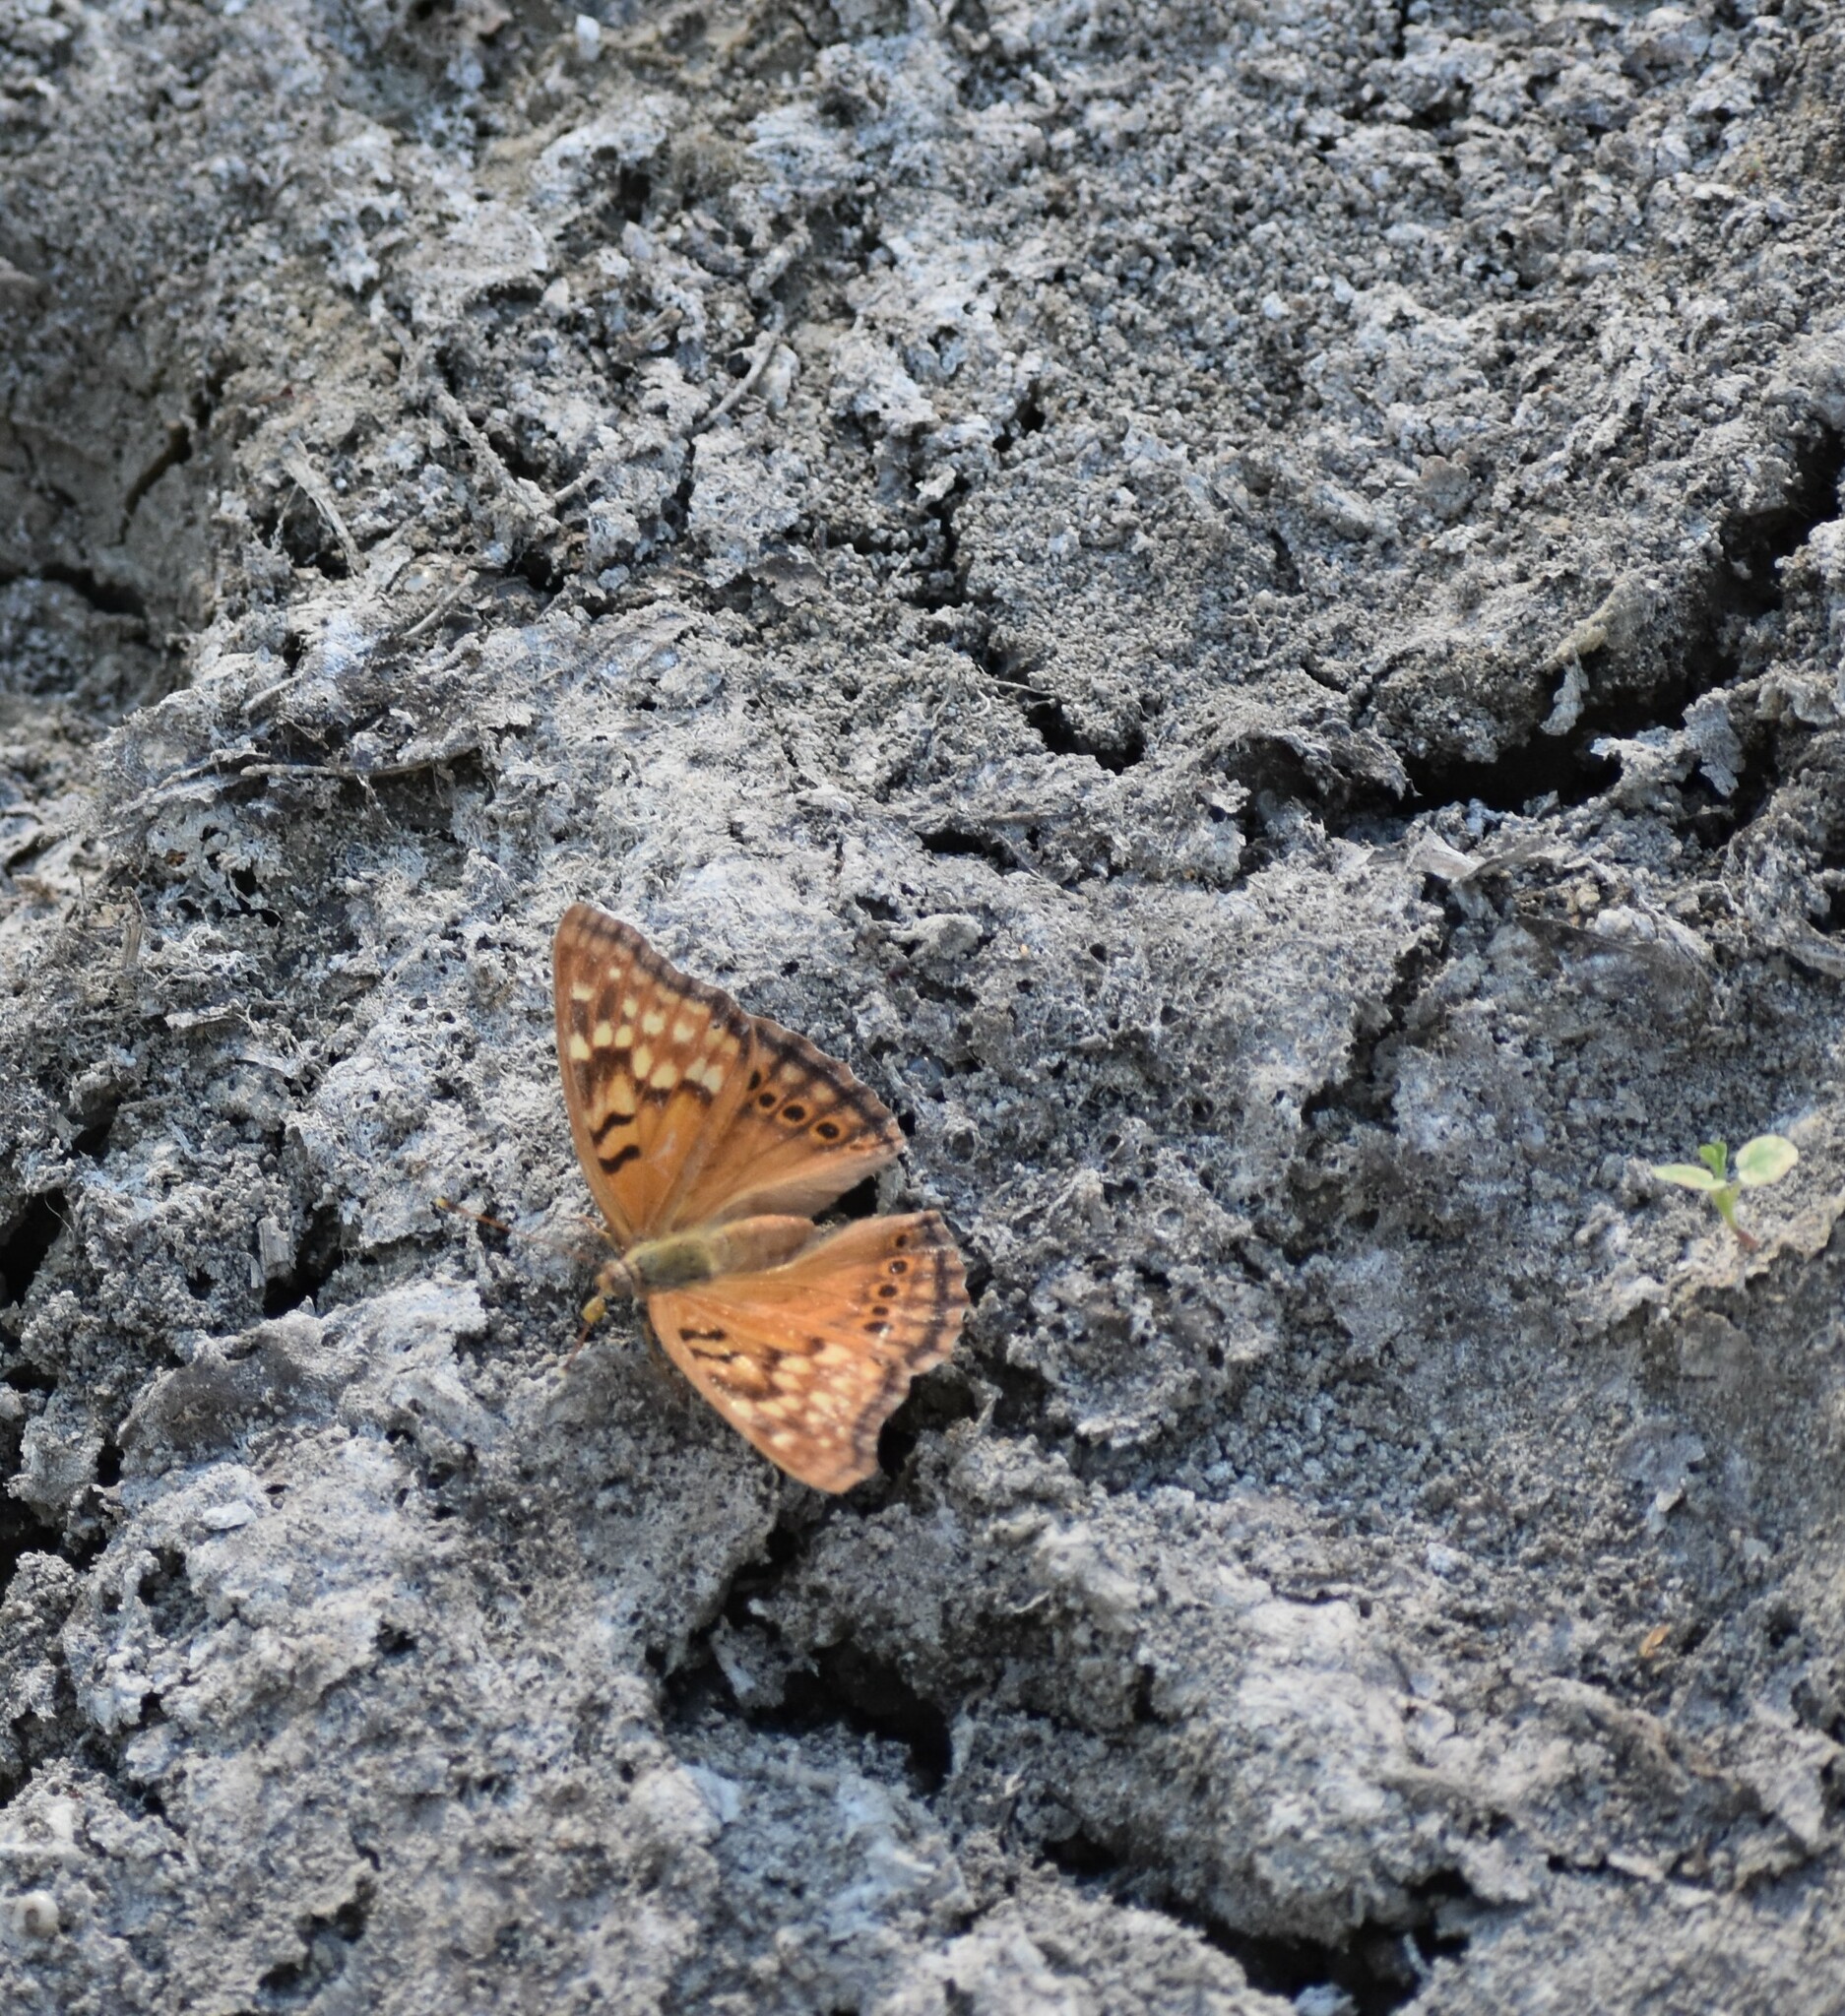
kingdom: Animalia
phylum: Arthropoda
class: Insecta
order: Lepidoptera
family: Nymphalidae
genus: Asterocampa
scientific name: Asterocampa clyton
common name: Tawny emperor
